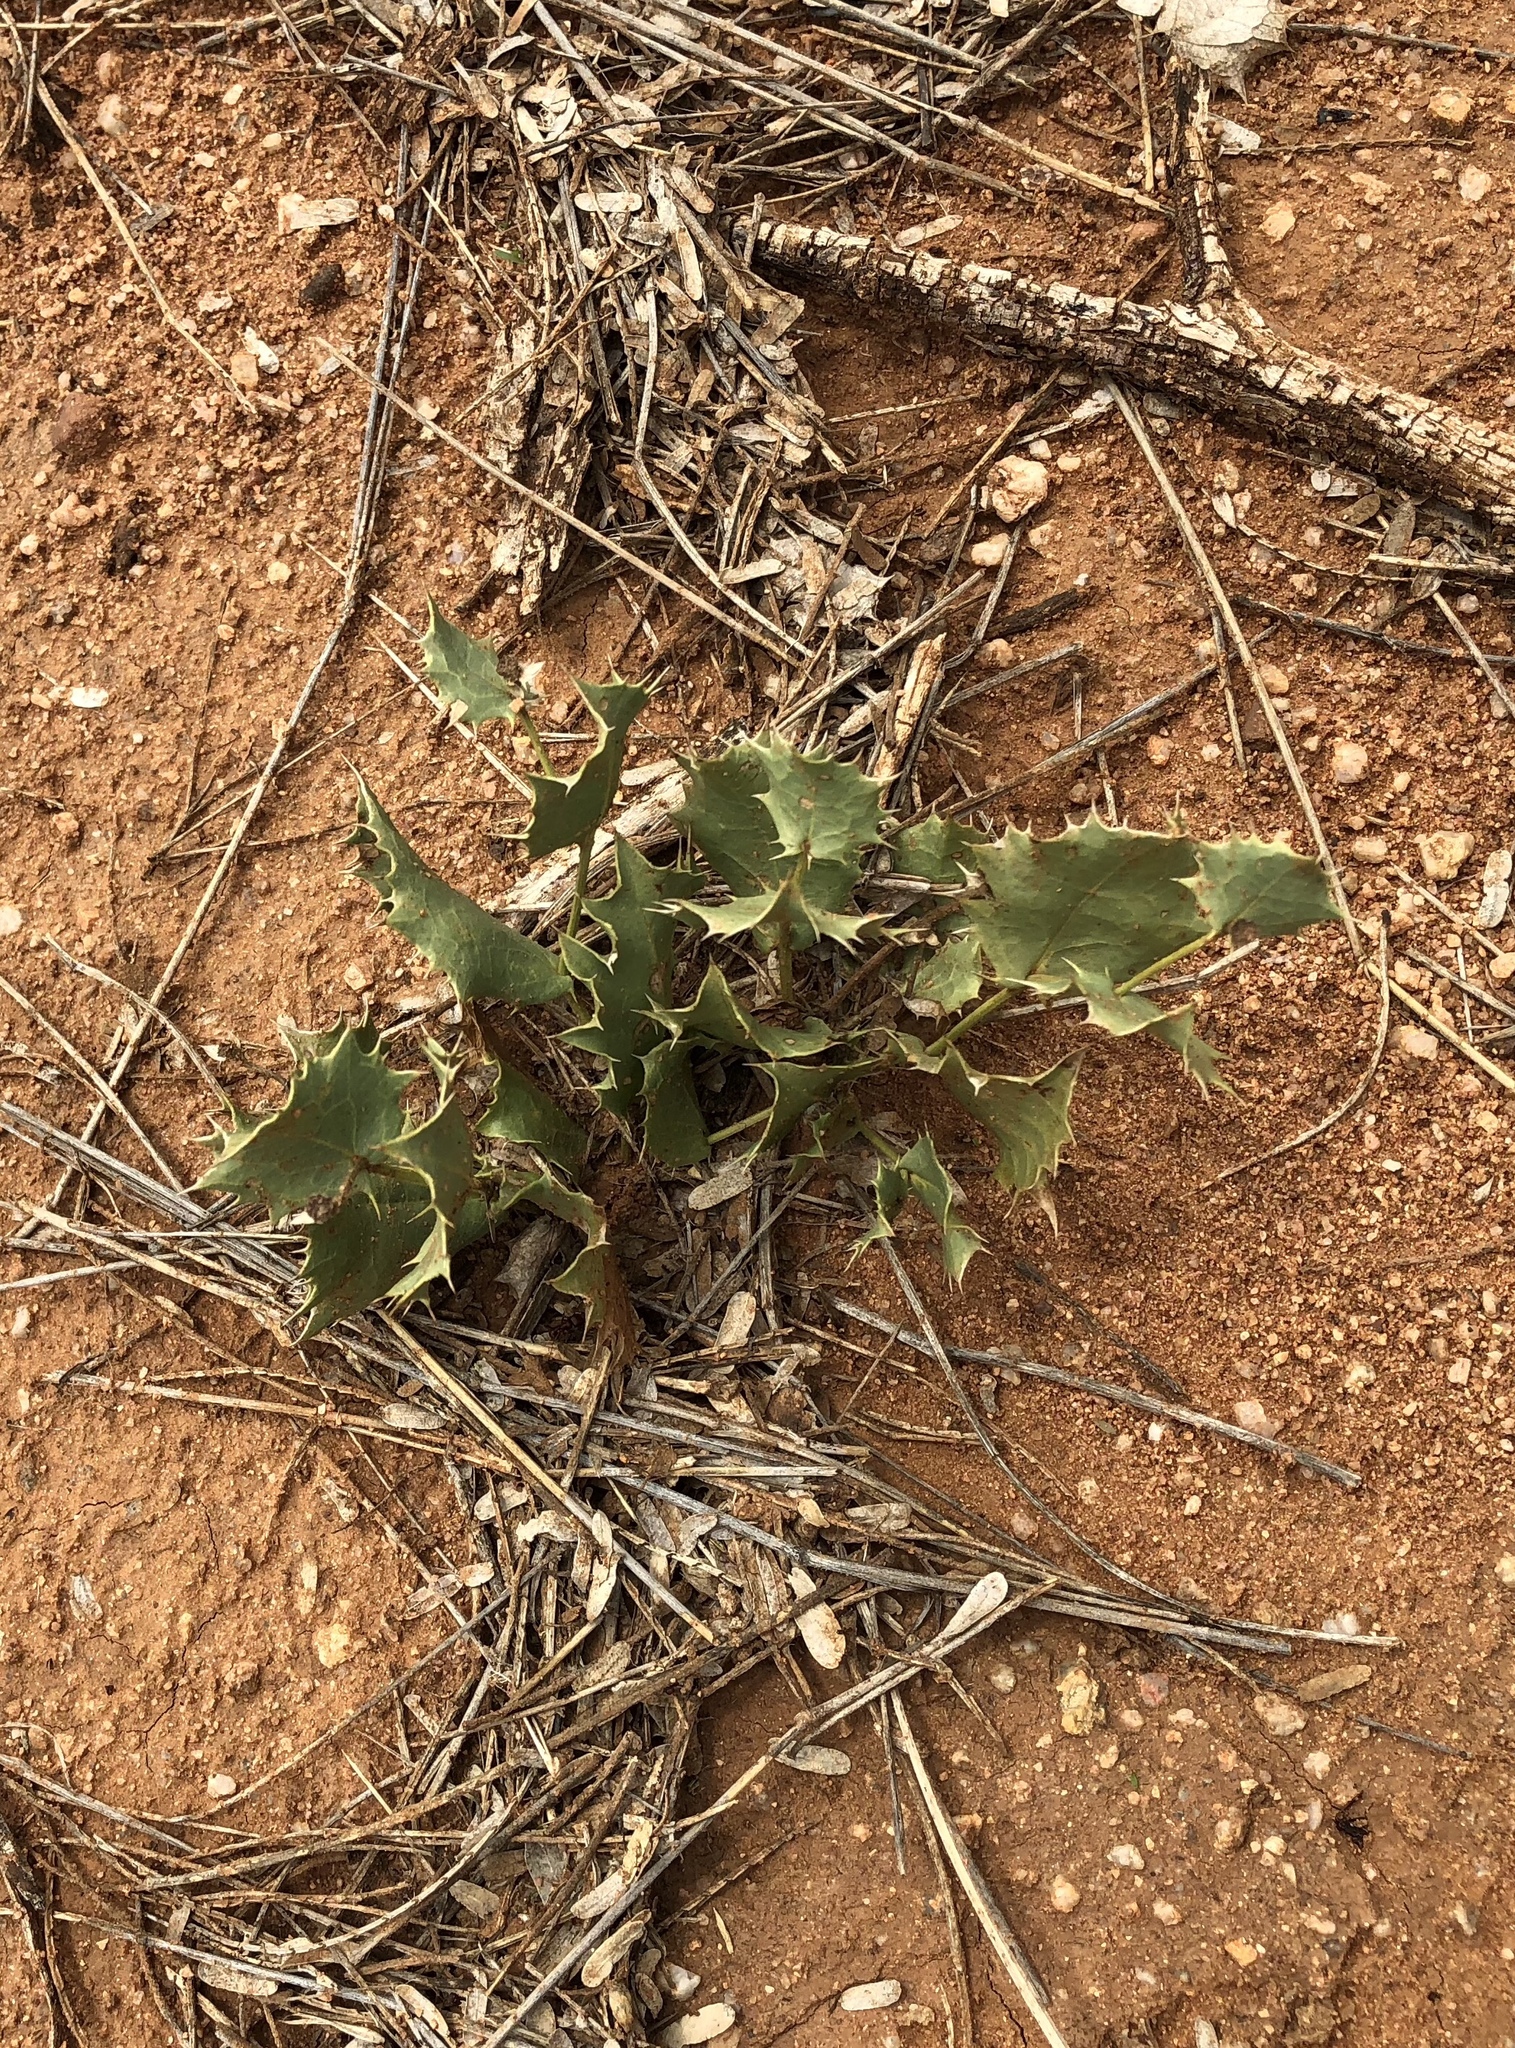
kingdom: Plantae
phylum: Tracheophyta
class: Magnoliopsida
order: Asterales
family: Asteraceae
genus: Acourtia
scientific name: Acourtia nana
